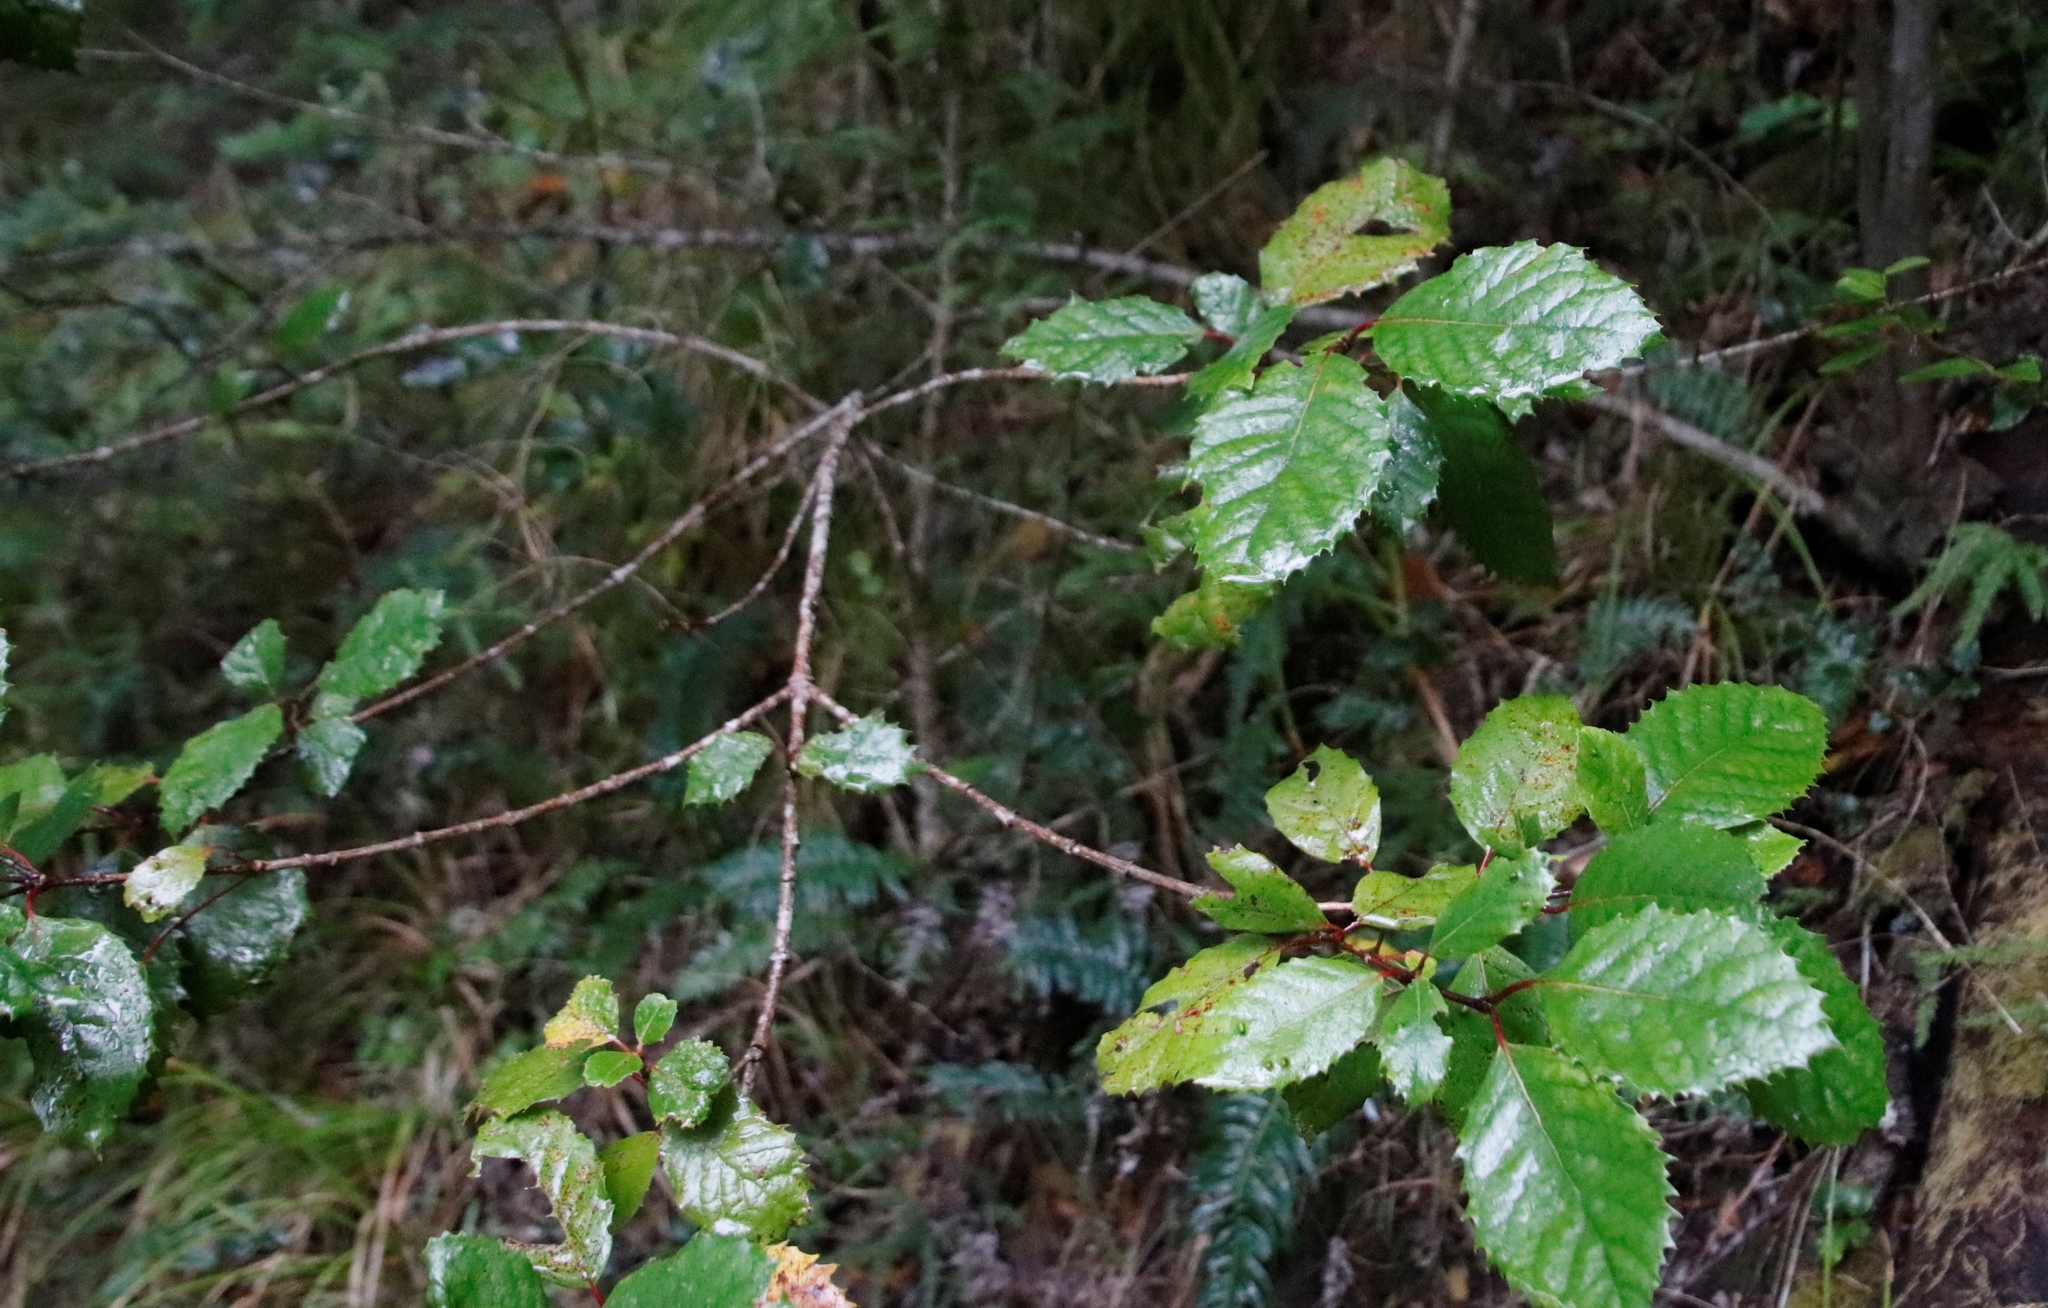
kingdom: Plantae
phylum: Tracheophyta
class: Magnoliopsida
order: Cornales
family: Curtisiaceae
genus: Curtisia
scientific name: Curtisia dentata
